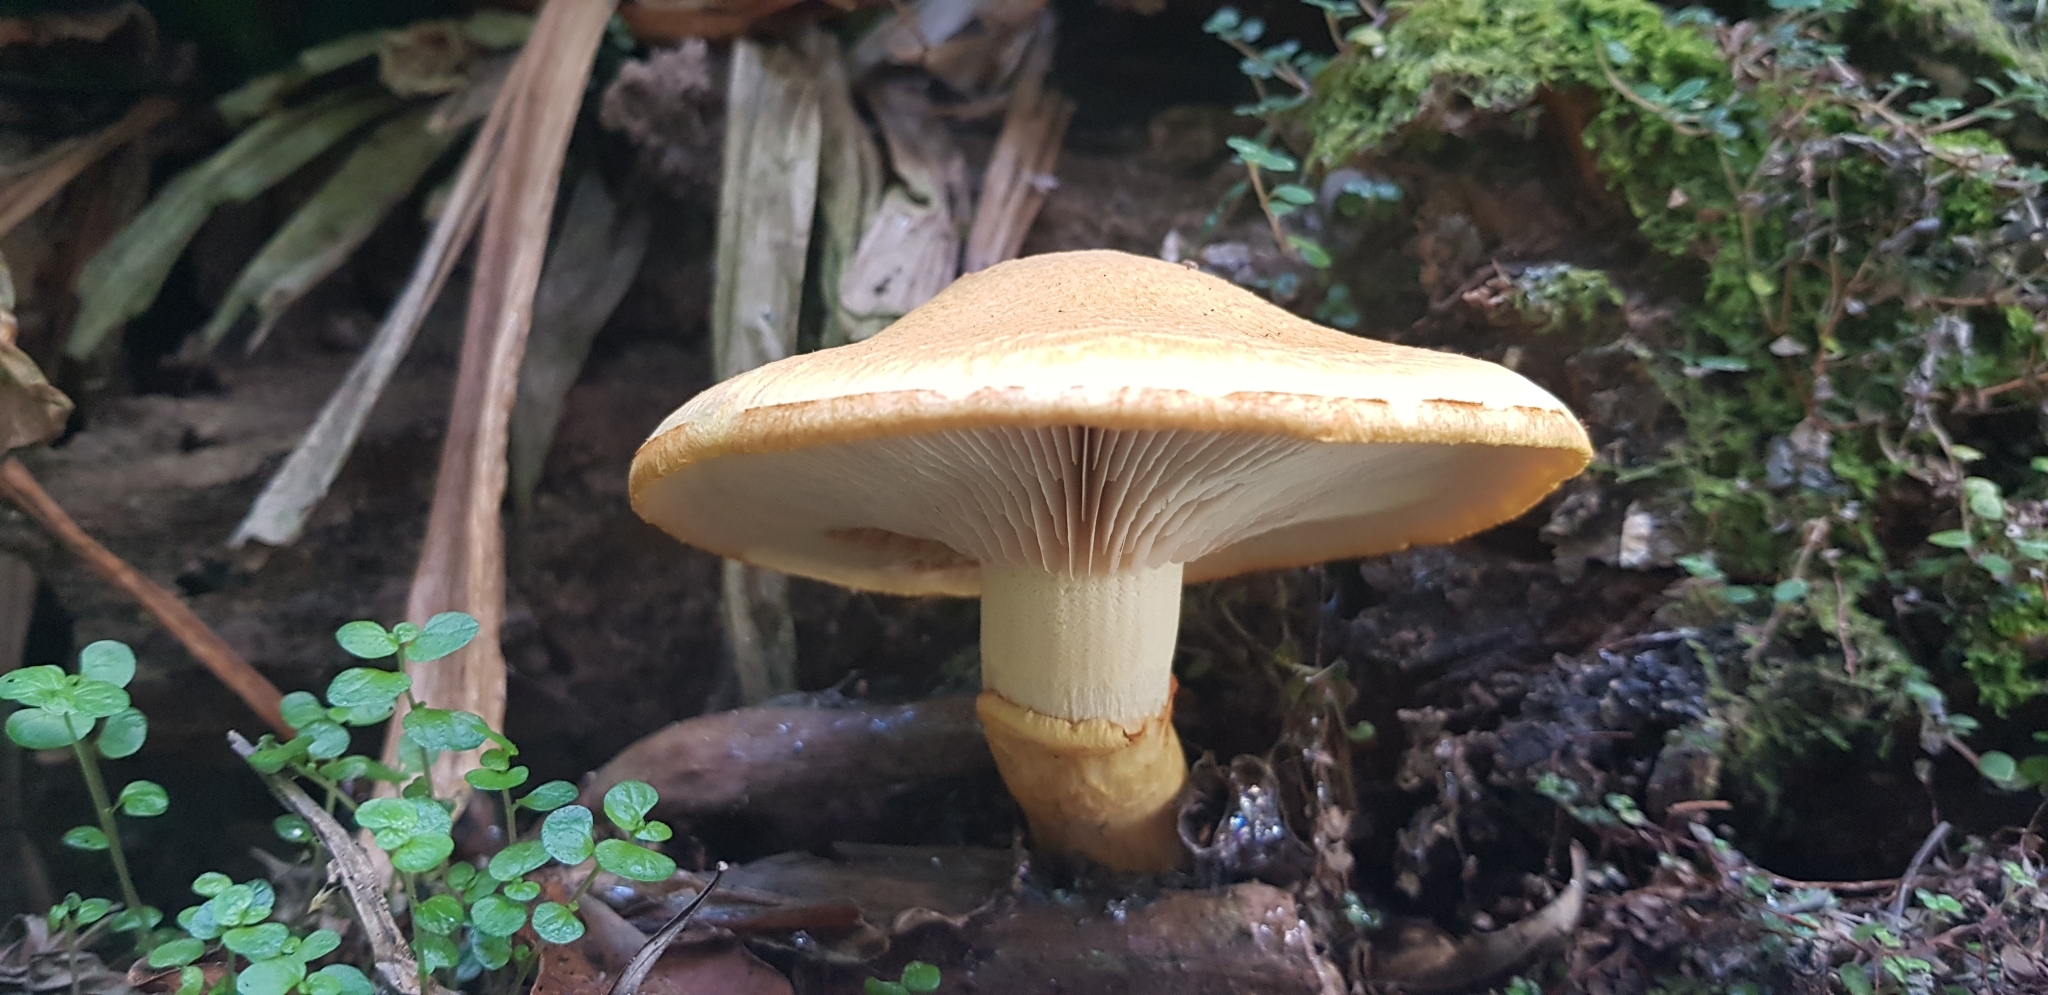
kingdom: Fungi
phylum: Basidiomycota
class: Agaricomycetes
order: Agaricales
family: Hymenogastraceae
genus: Gymnopilus
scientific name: Gymnopilus junonius
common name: Spectacular rustgill
